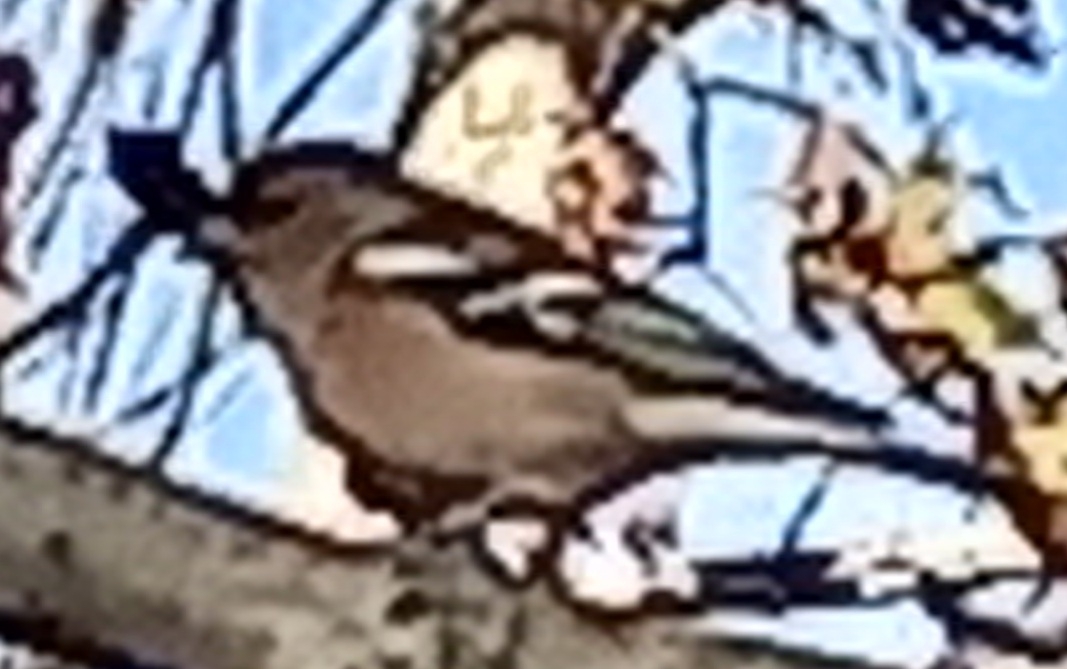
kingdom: Animalia
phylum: Chordata
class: Aves
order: Passeriformes
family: Fringillidae
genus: Fringilla
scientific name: Fringilla coelebs
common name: Common chaffinch
